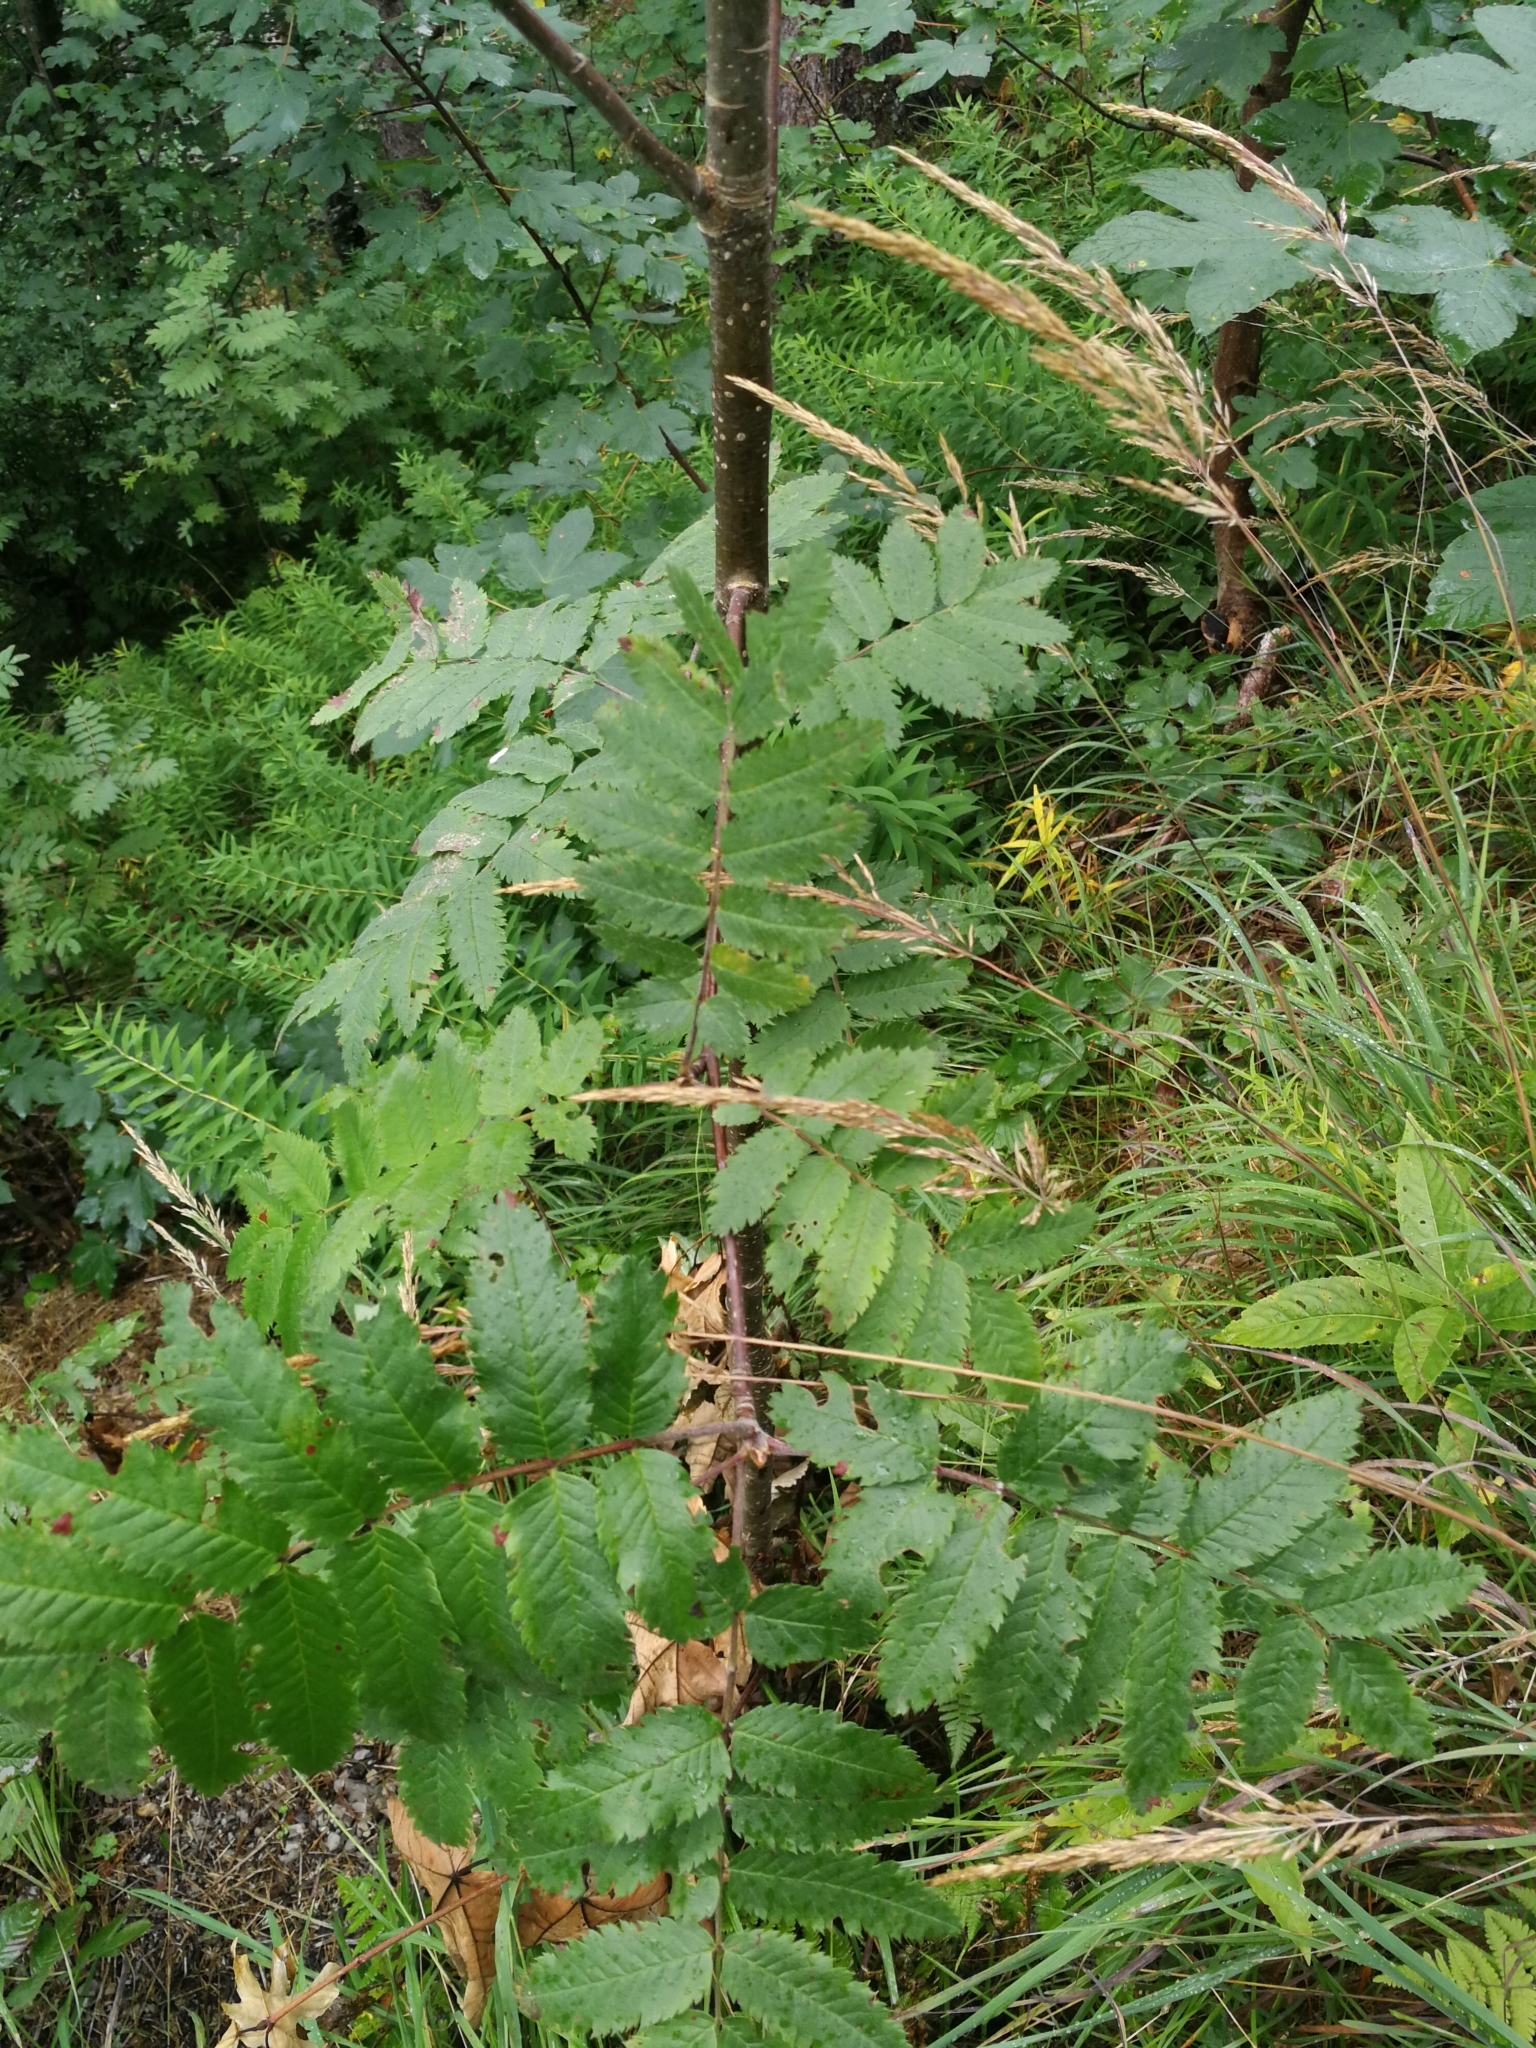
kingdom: Plantae
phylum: Tracheophyta
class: Magnoliopsida
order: Rosales
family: Rosaceae
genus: Sorbus
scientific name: Sorbus aucuparia
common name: Rowan
